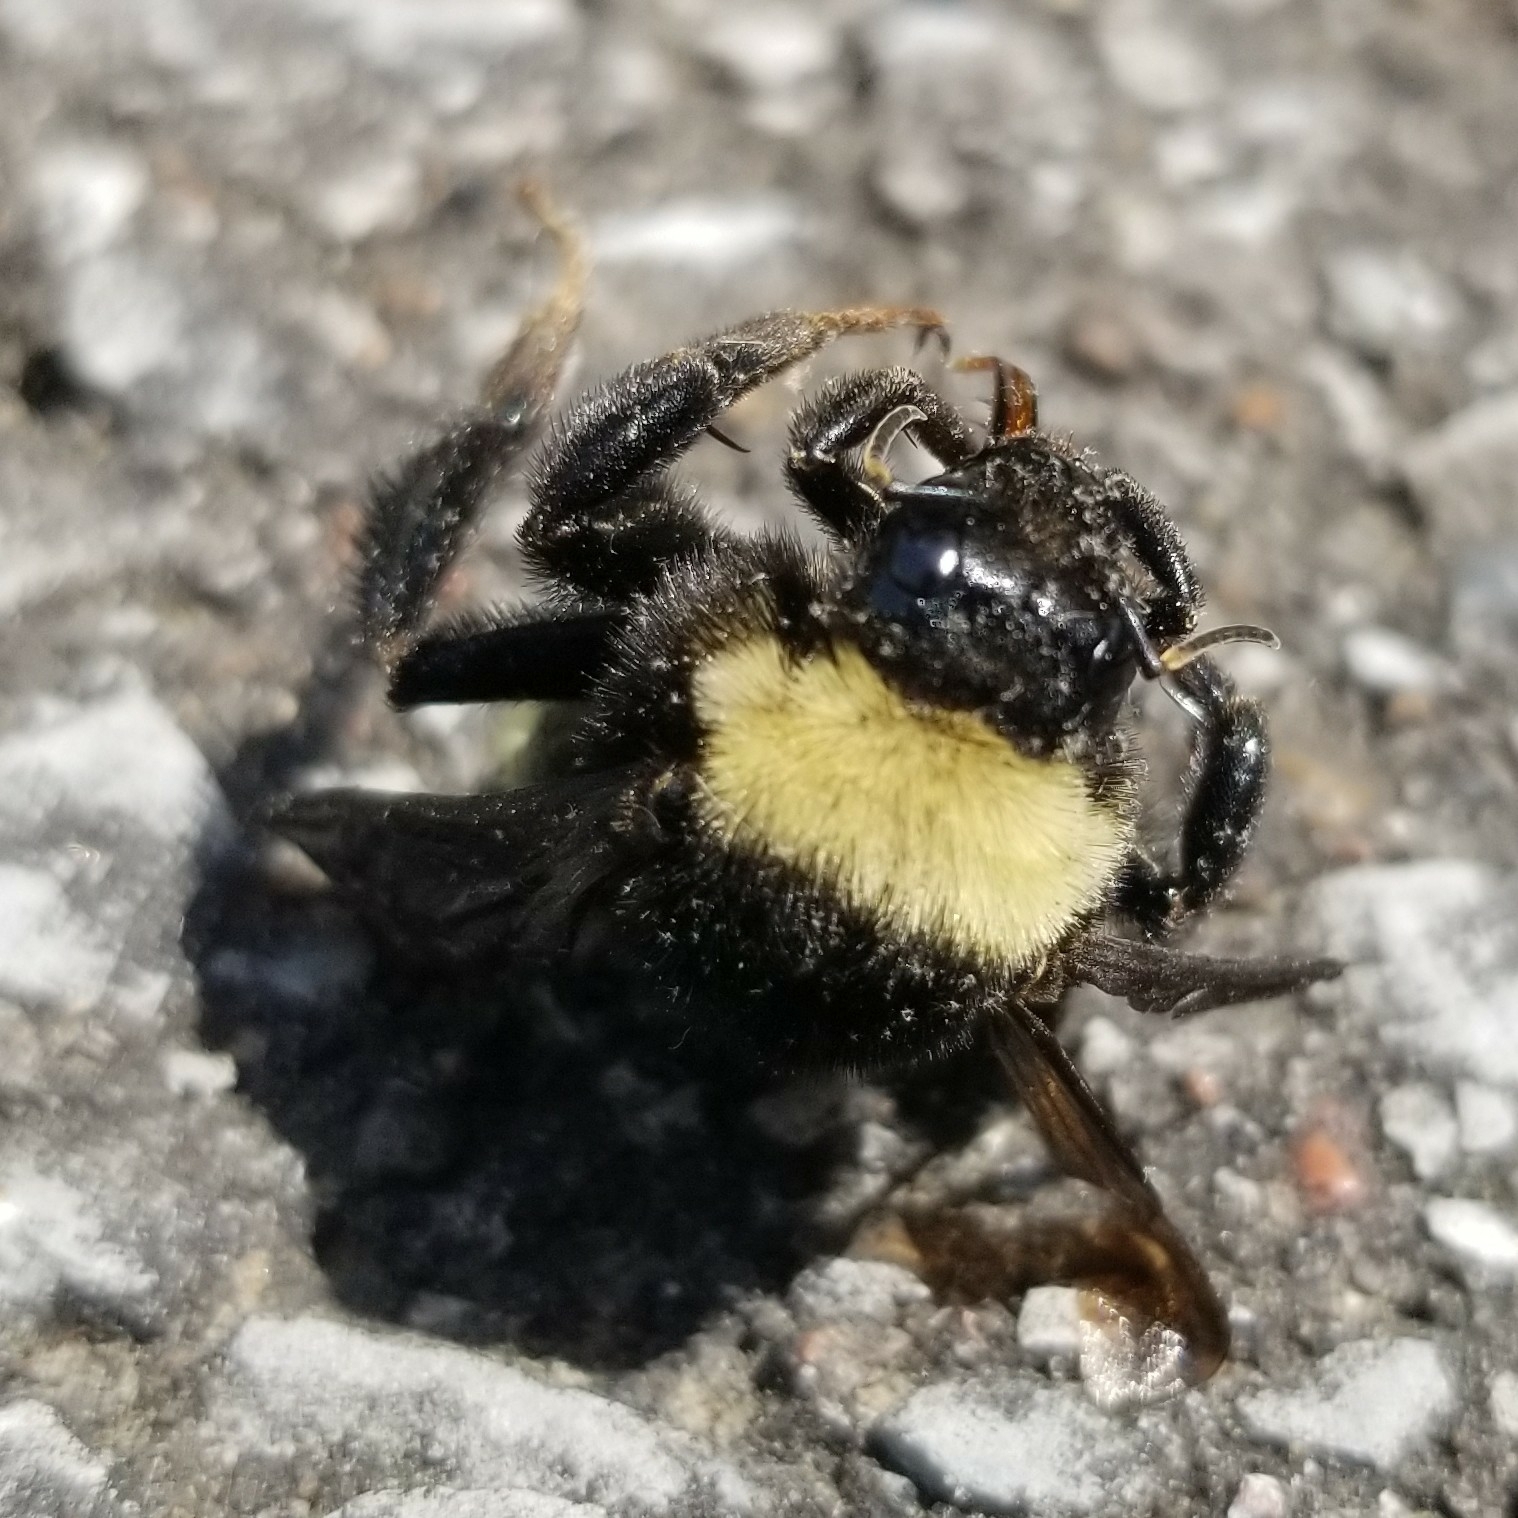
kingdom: Animalia
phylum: Arthropoda
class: Insecta
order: Hymenoptera
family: Apidae
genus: Bombus
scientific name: Bombus pensylvanicus
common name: Bumble bee
